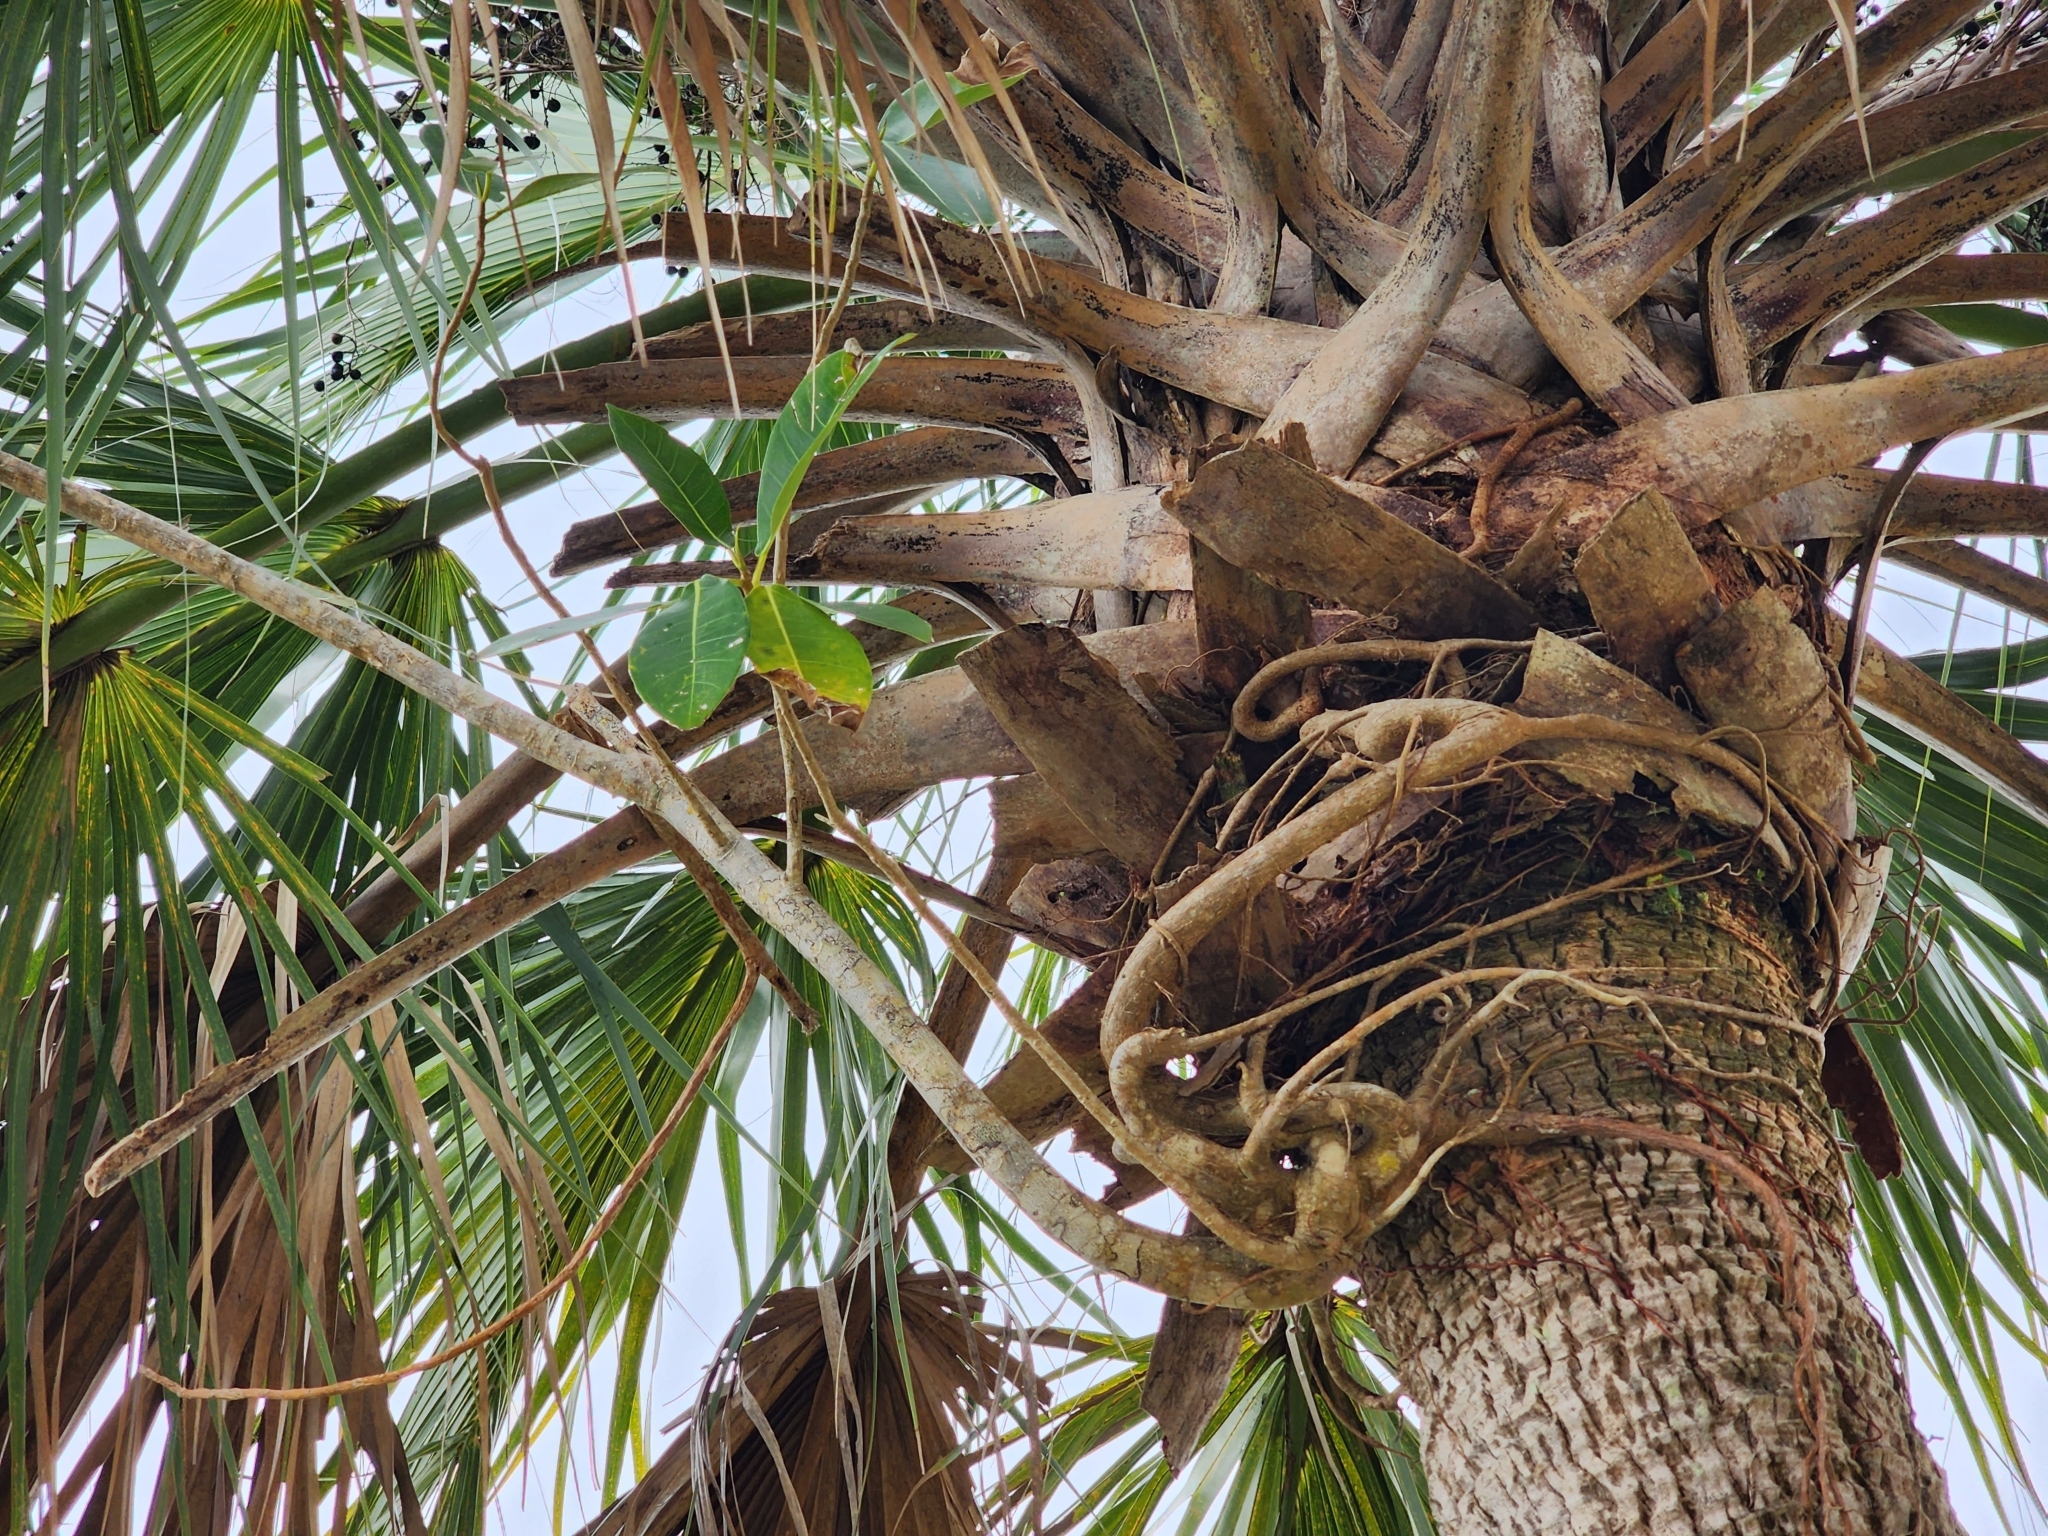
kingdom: Plantae
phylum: Tracheophyta
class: Magnoliopsida
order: Rosales
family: Moraceae
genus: Ficus
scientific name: Ficus aurea
